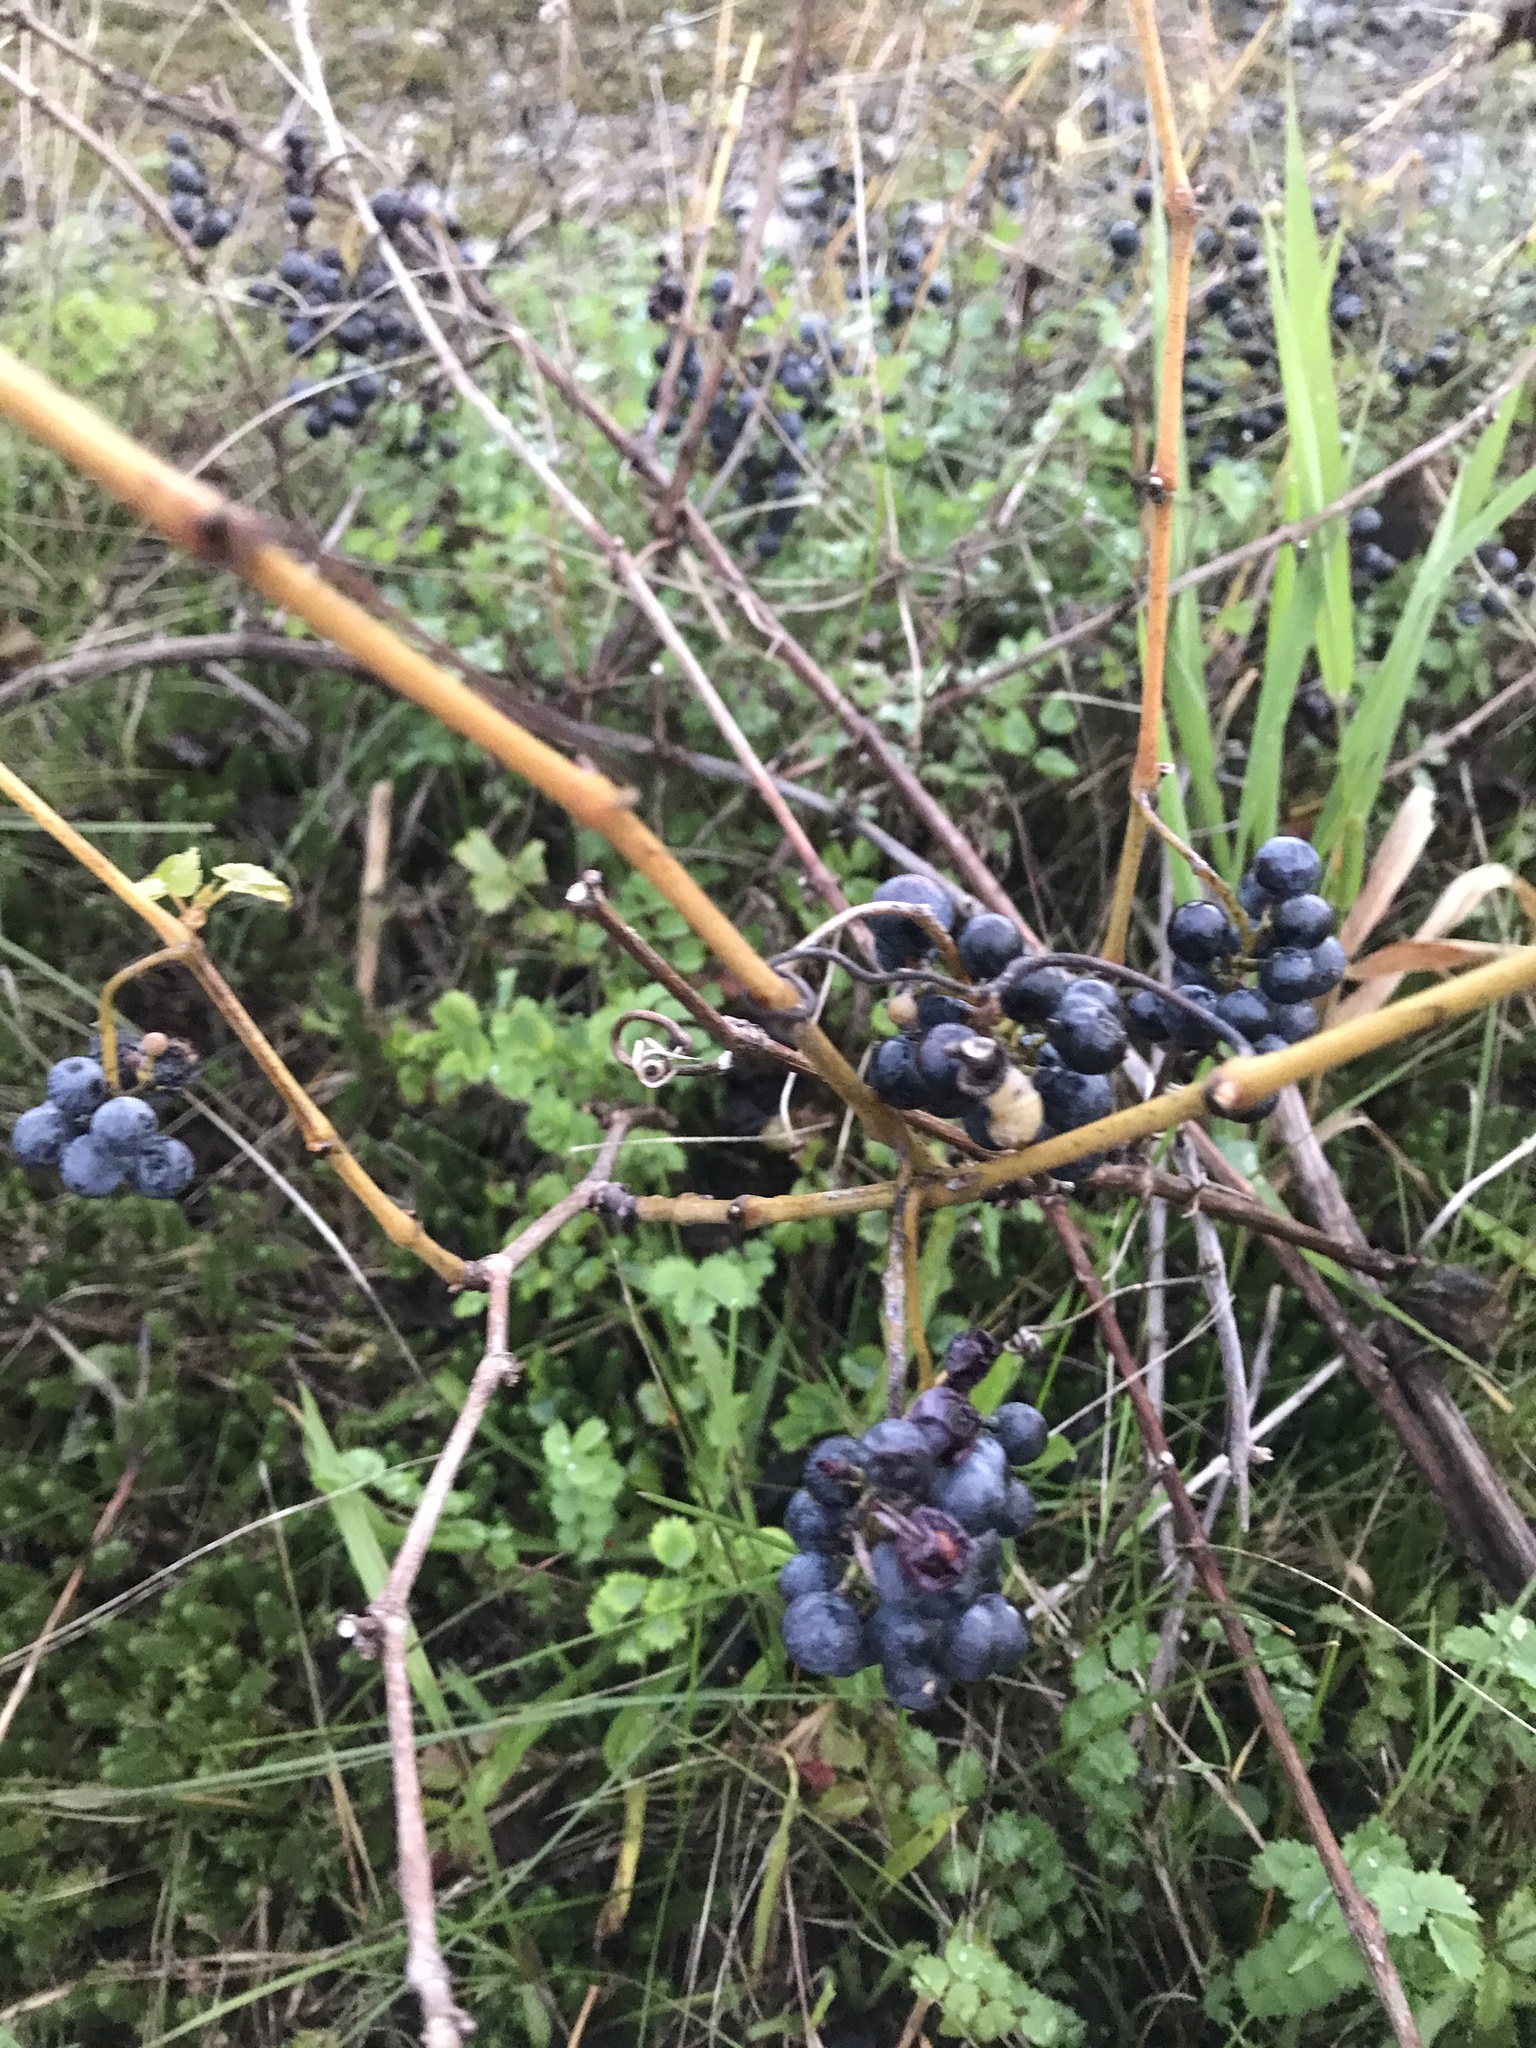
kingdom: Plantae
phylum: Tracheophyta
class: Magnoliopsida
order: Vitales
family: Vitaceae
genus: Vitis
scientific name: Vitis riparia
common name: Frost grape
